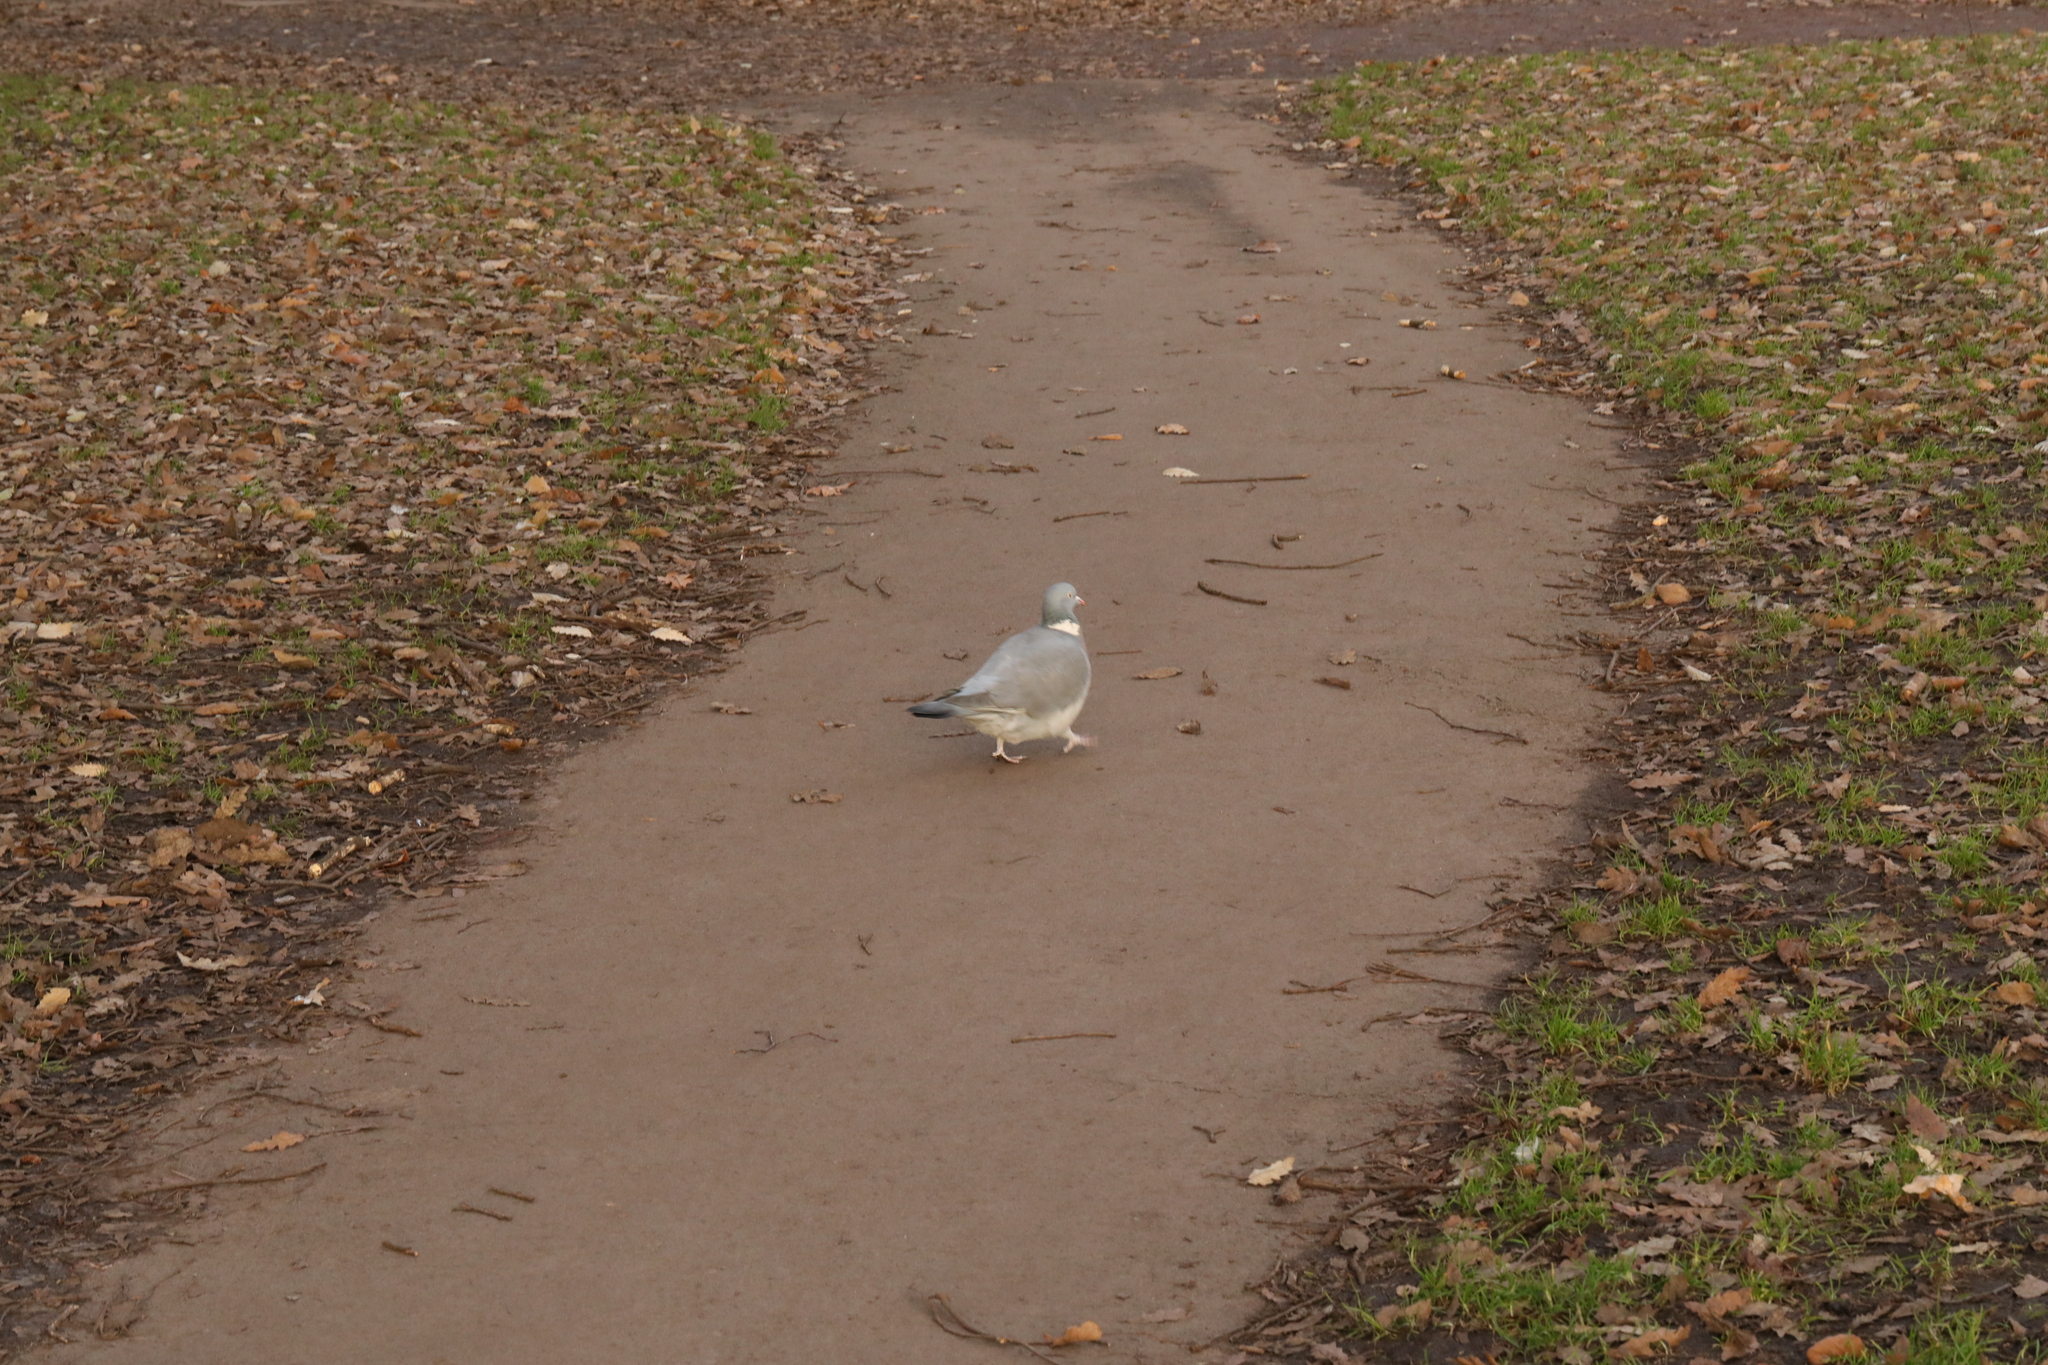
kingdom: Animalia
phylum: Chordata
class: Aves
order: Columbiformes
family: Columbidae
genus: Columba
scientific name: Columba palumbus
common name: Common wood pigeon
